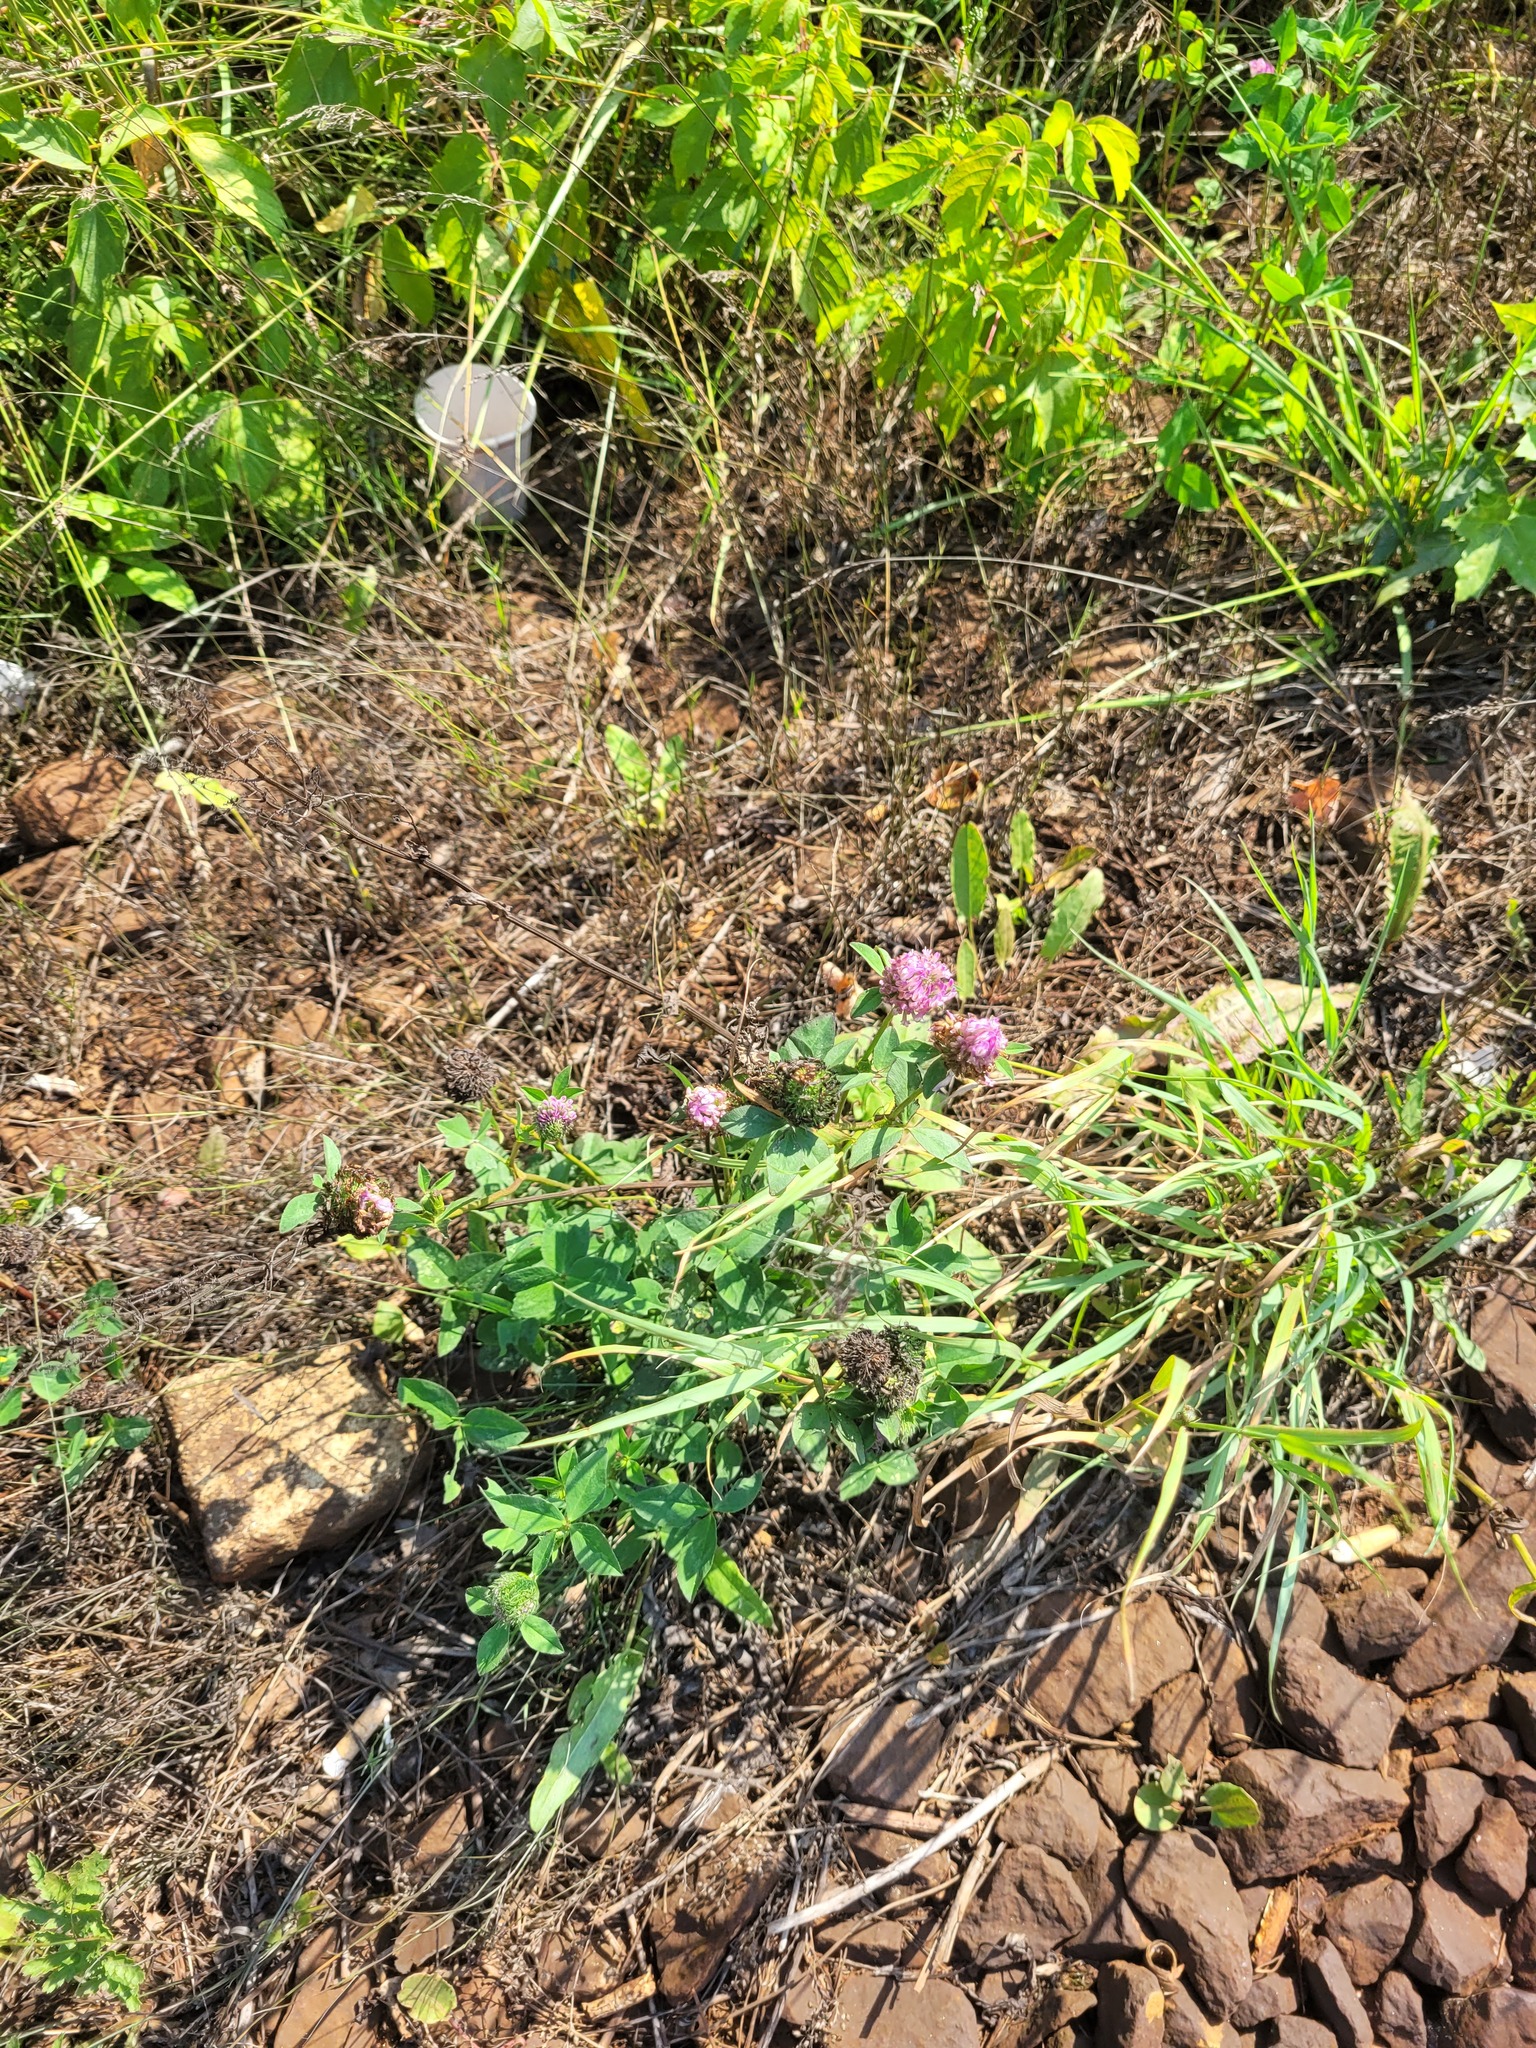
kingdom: Plantae
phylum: Tracheophyta
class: Magnoliopsida
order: Fabales
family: Fabaceae
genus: Trifolium
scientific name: Trifolium pratense
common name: Red clover
